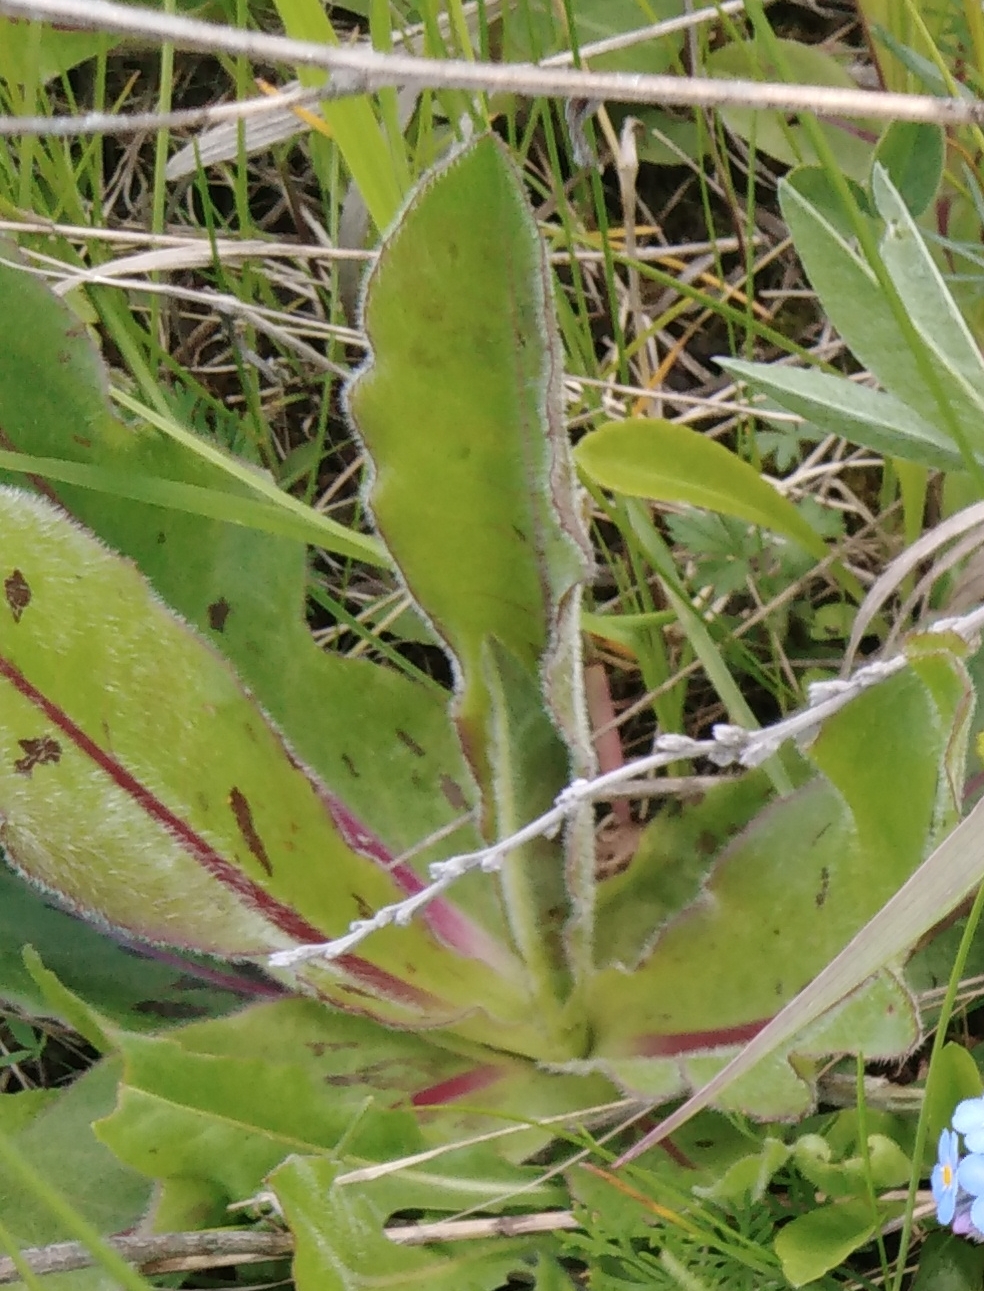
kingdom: Plantae
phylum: Tracheophyta
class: Magnoliopsida
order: Asterales
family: Asteraceae
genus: Trommsdorffia
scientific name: Trommsdorffia maculata
